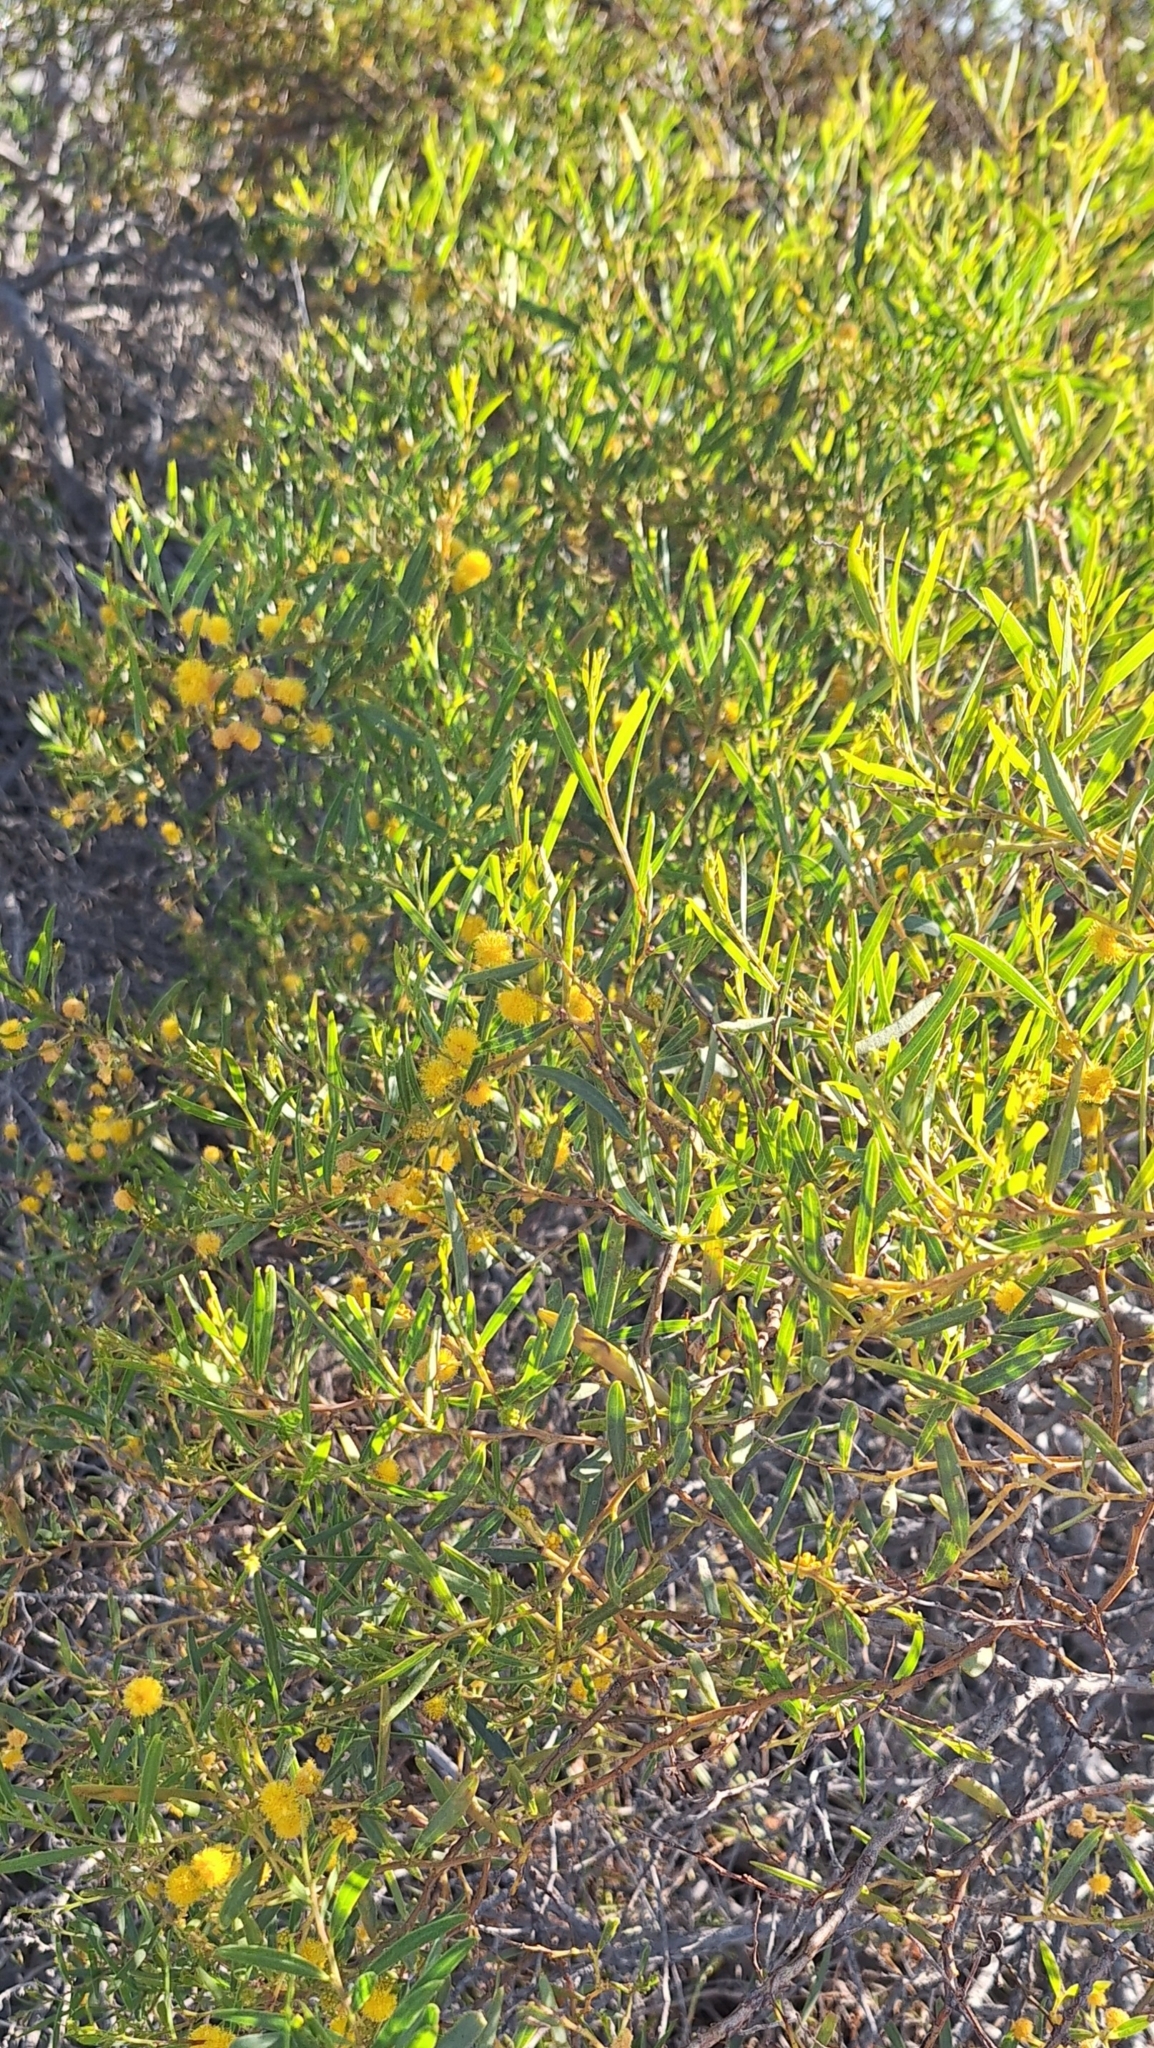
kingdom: Plantae
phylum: Tracheophyta
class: Magnoliopsida
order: Fabales
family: Fabaceae
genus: Acacia
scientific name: Acacia ligulata
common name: Dune wattle
